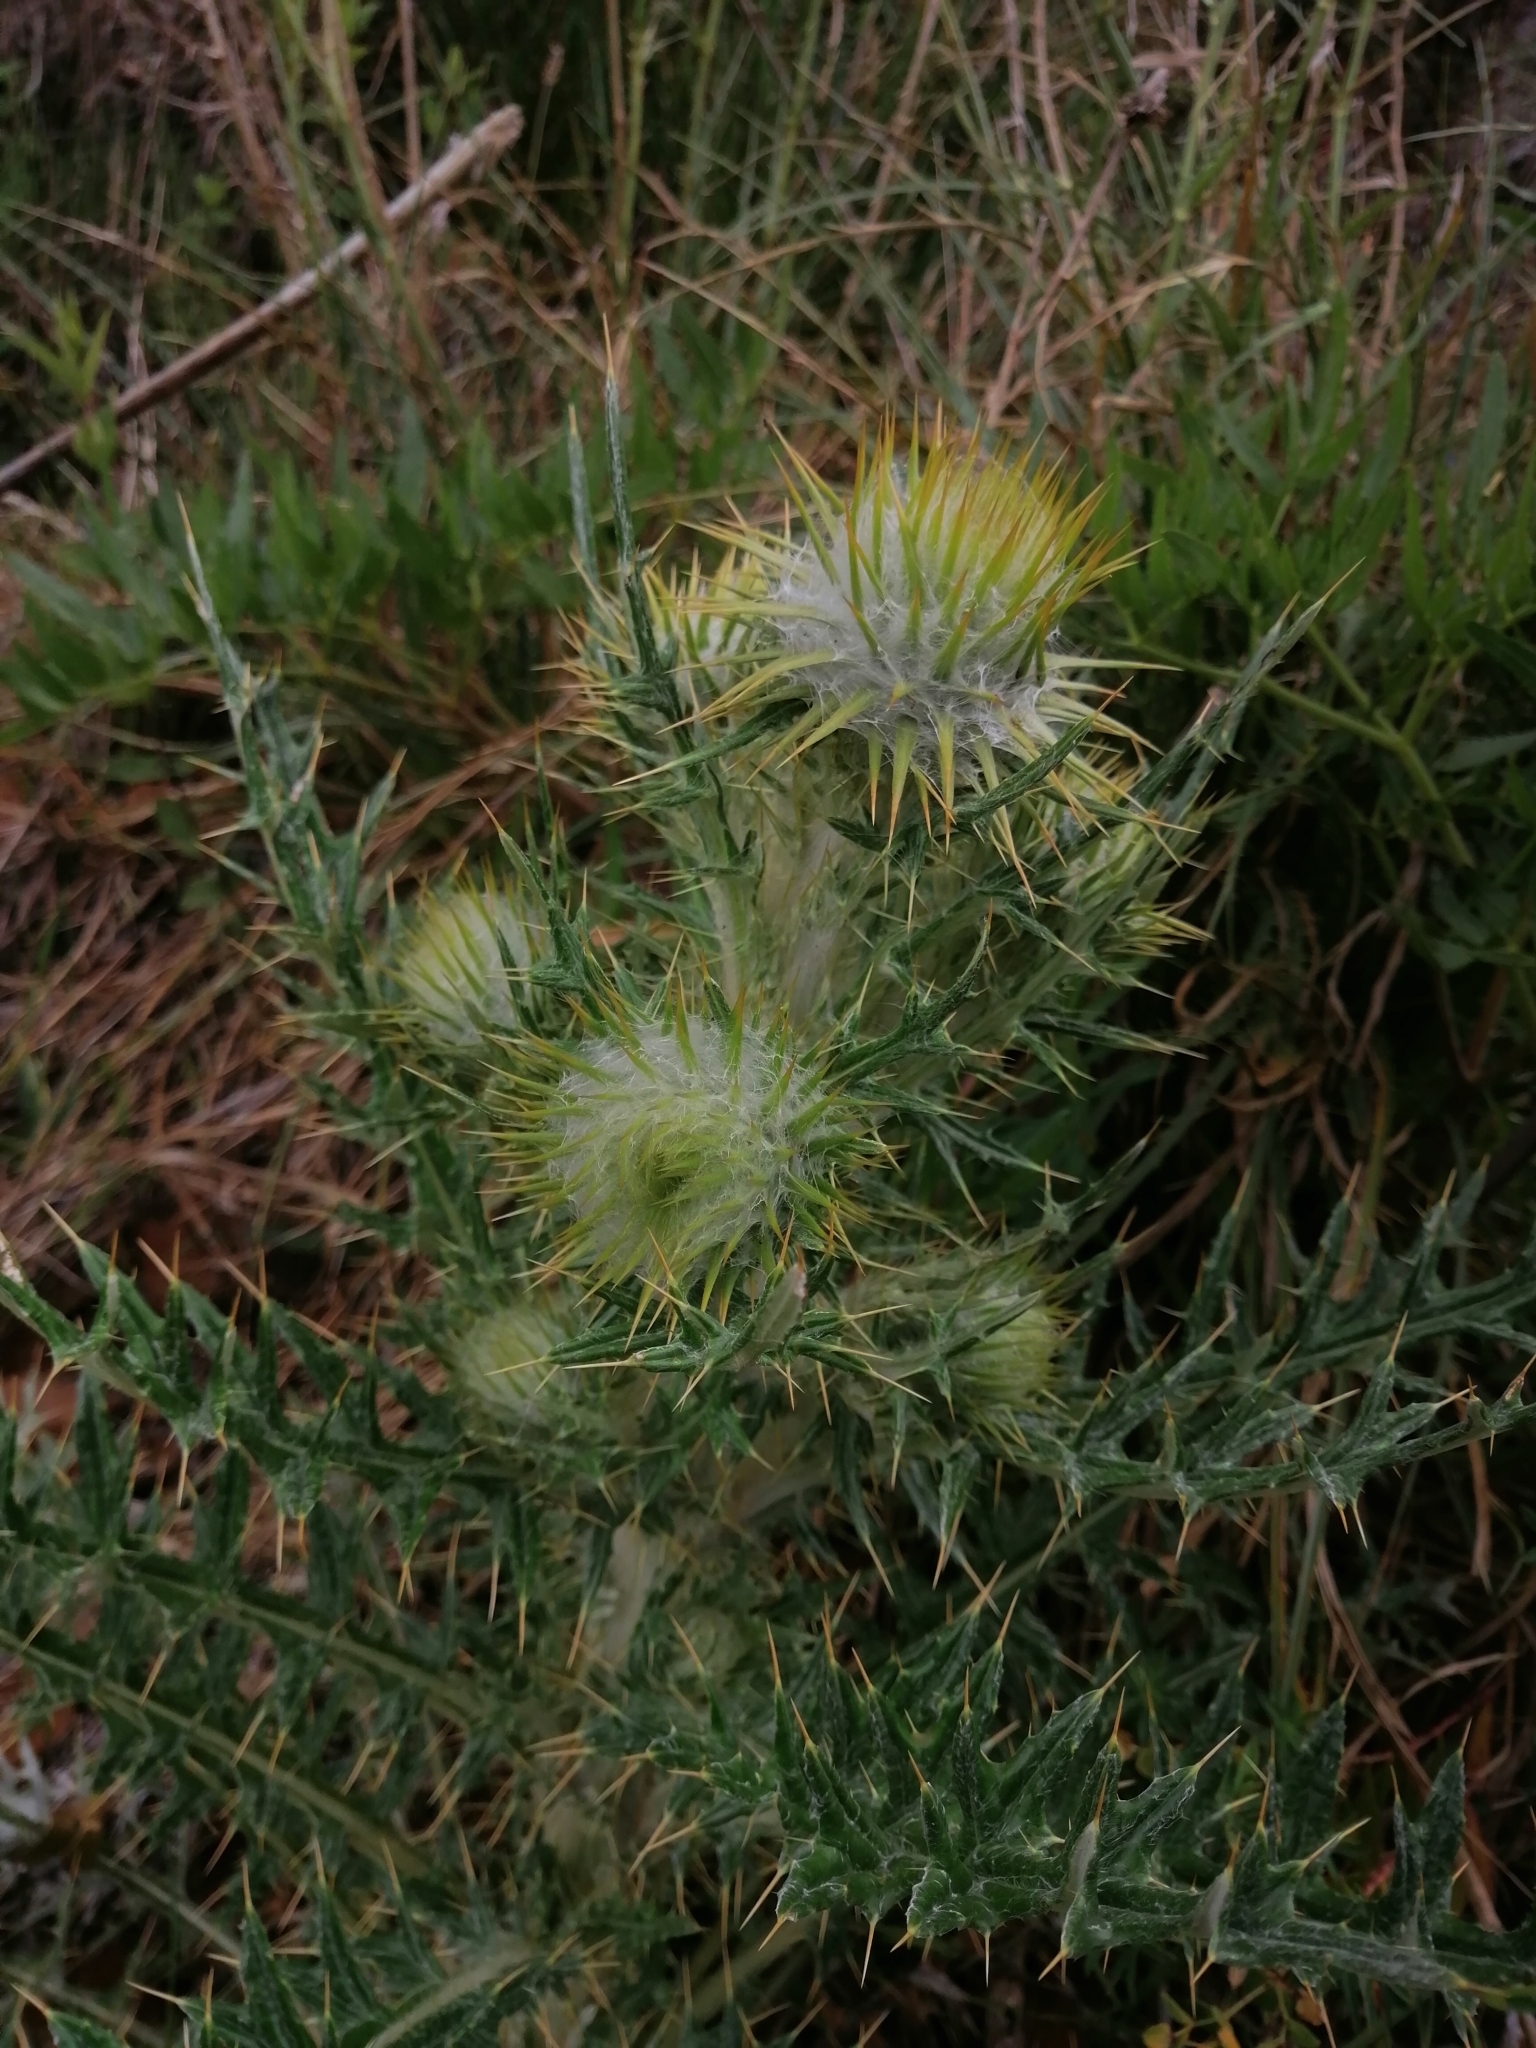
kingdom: Plantae
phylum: Tracheophyta
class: Magnoliopsida
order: Asterales
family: Asteraceae
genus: Cirsium
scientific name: Cirsium zamoranense
